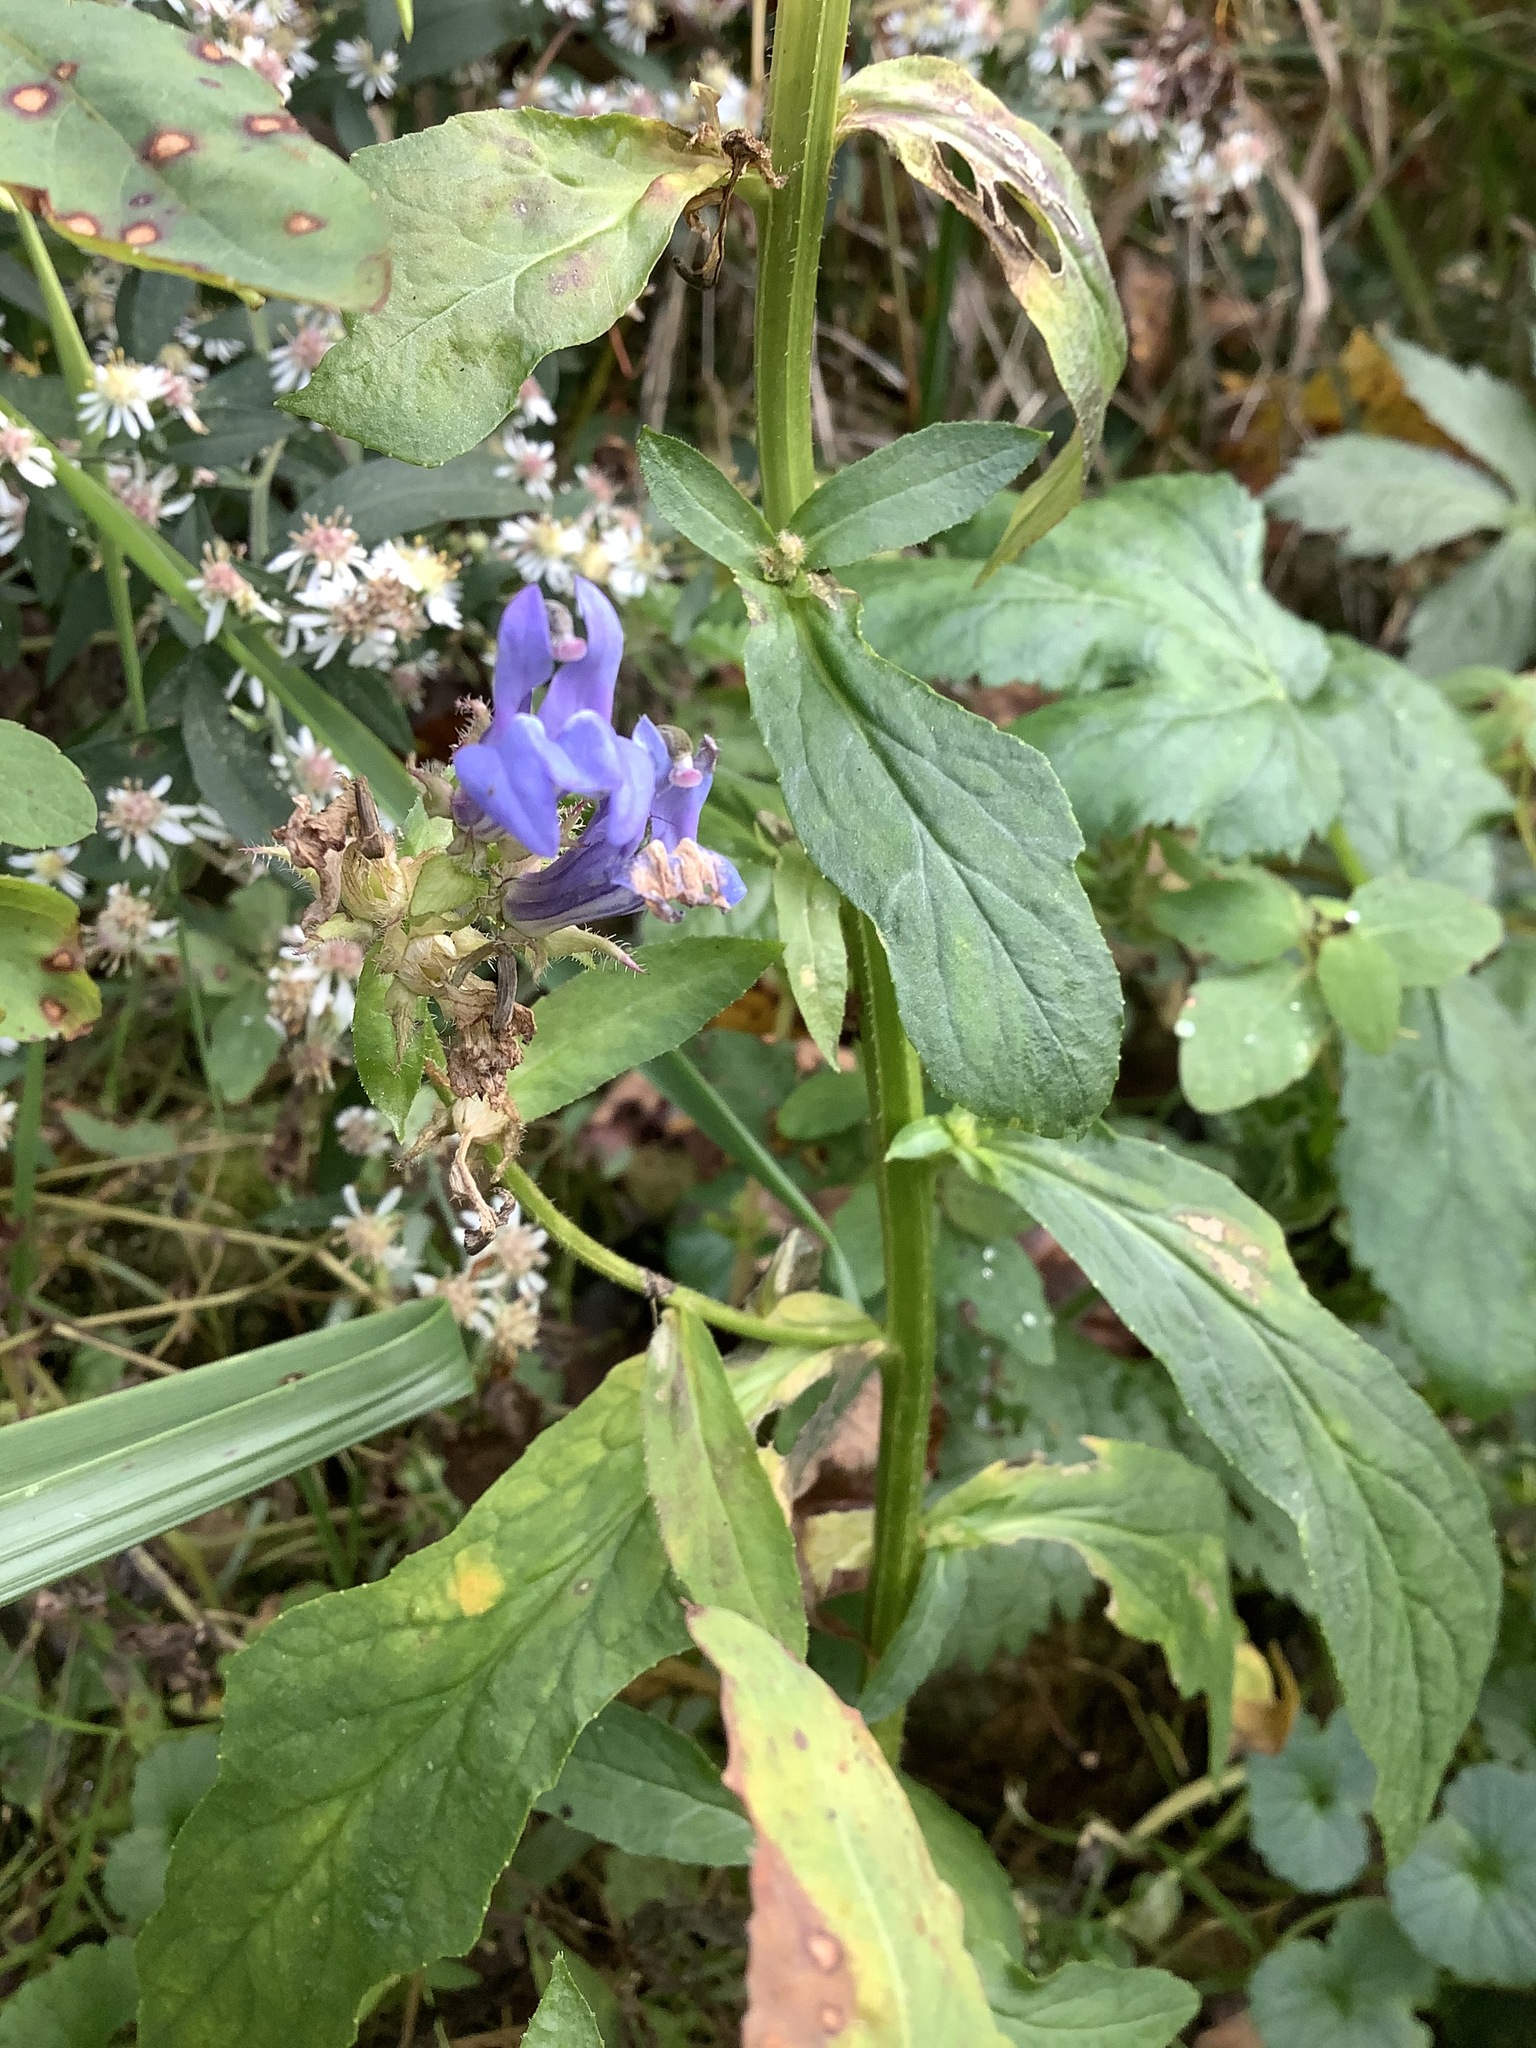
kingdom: Plantae
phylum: Tracheophyta
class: Magnoliopsida
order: Asterales
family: Campanulaceae
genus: Lobelia
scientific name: Lobelia siphilitica
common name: Great lobelia
